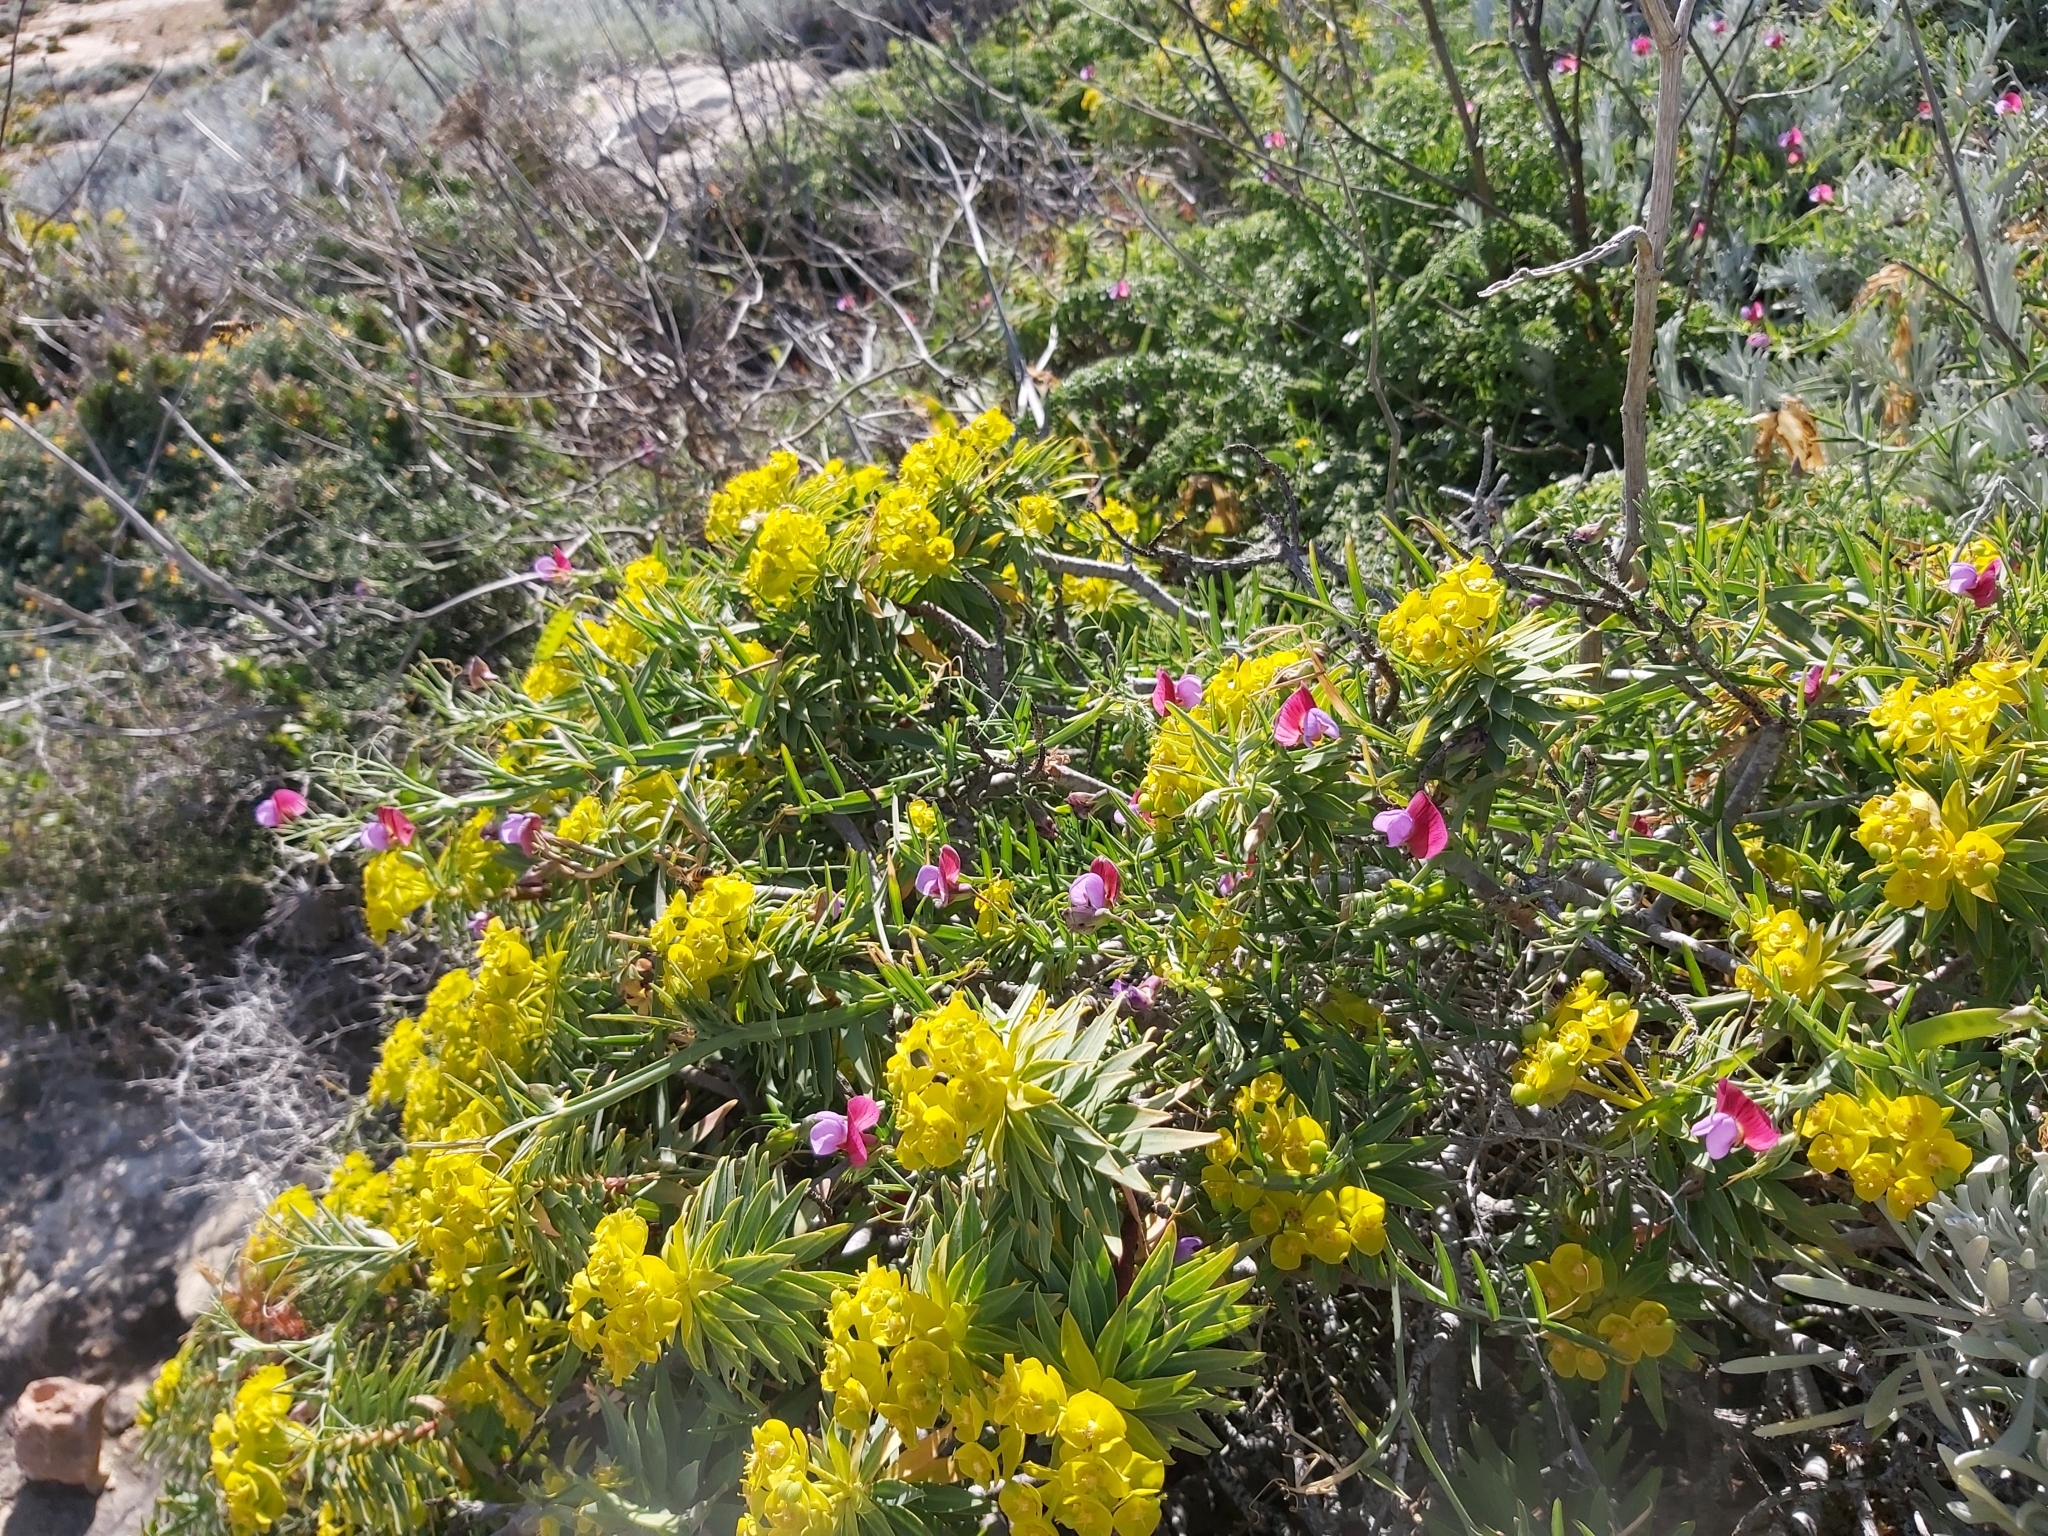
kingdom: Plantae
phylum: Tracheophyta
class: Magnoliopsida
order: Fabales
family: Fabaceae
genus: Lathyrus
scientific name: Lathyrus clymenum
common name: Spanish vetchling
